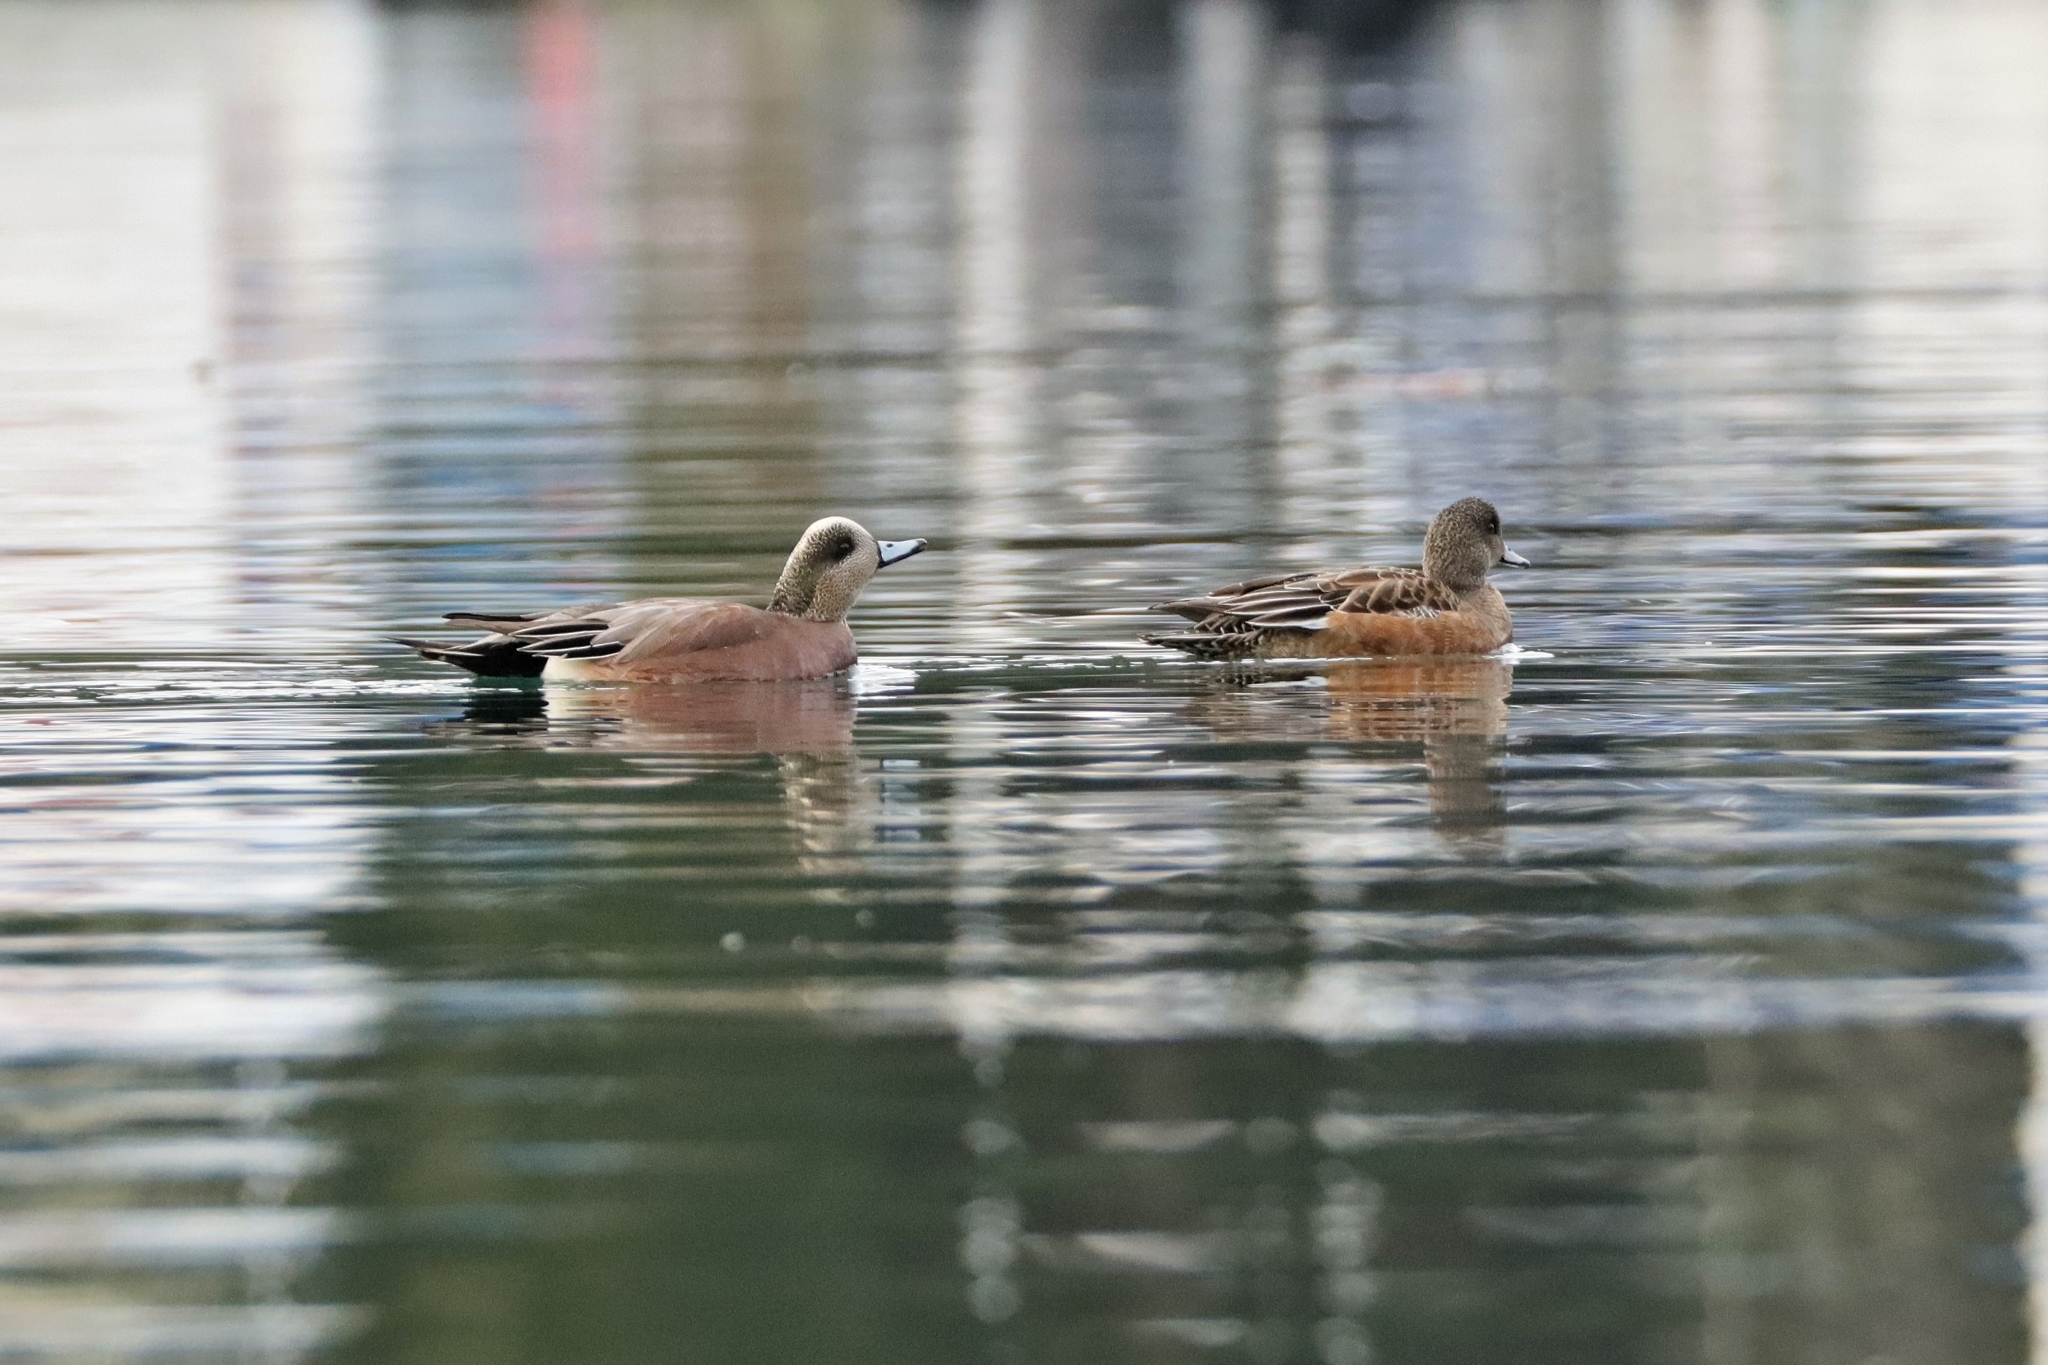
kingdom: Animalia
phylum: Chordata
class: Aves
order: Anseriformes
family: Anatidae
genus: Mareca
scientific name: Mareca americana
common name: American wigeon
